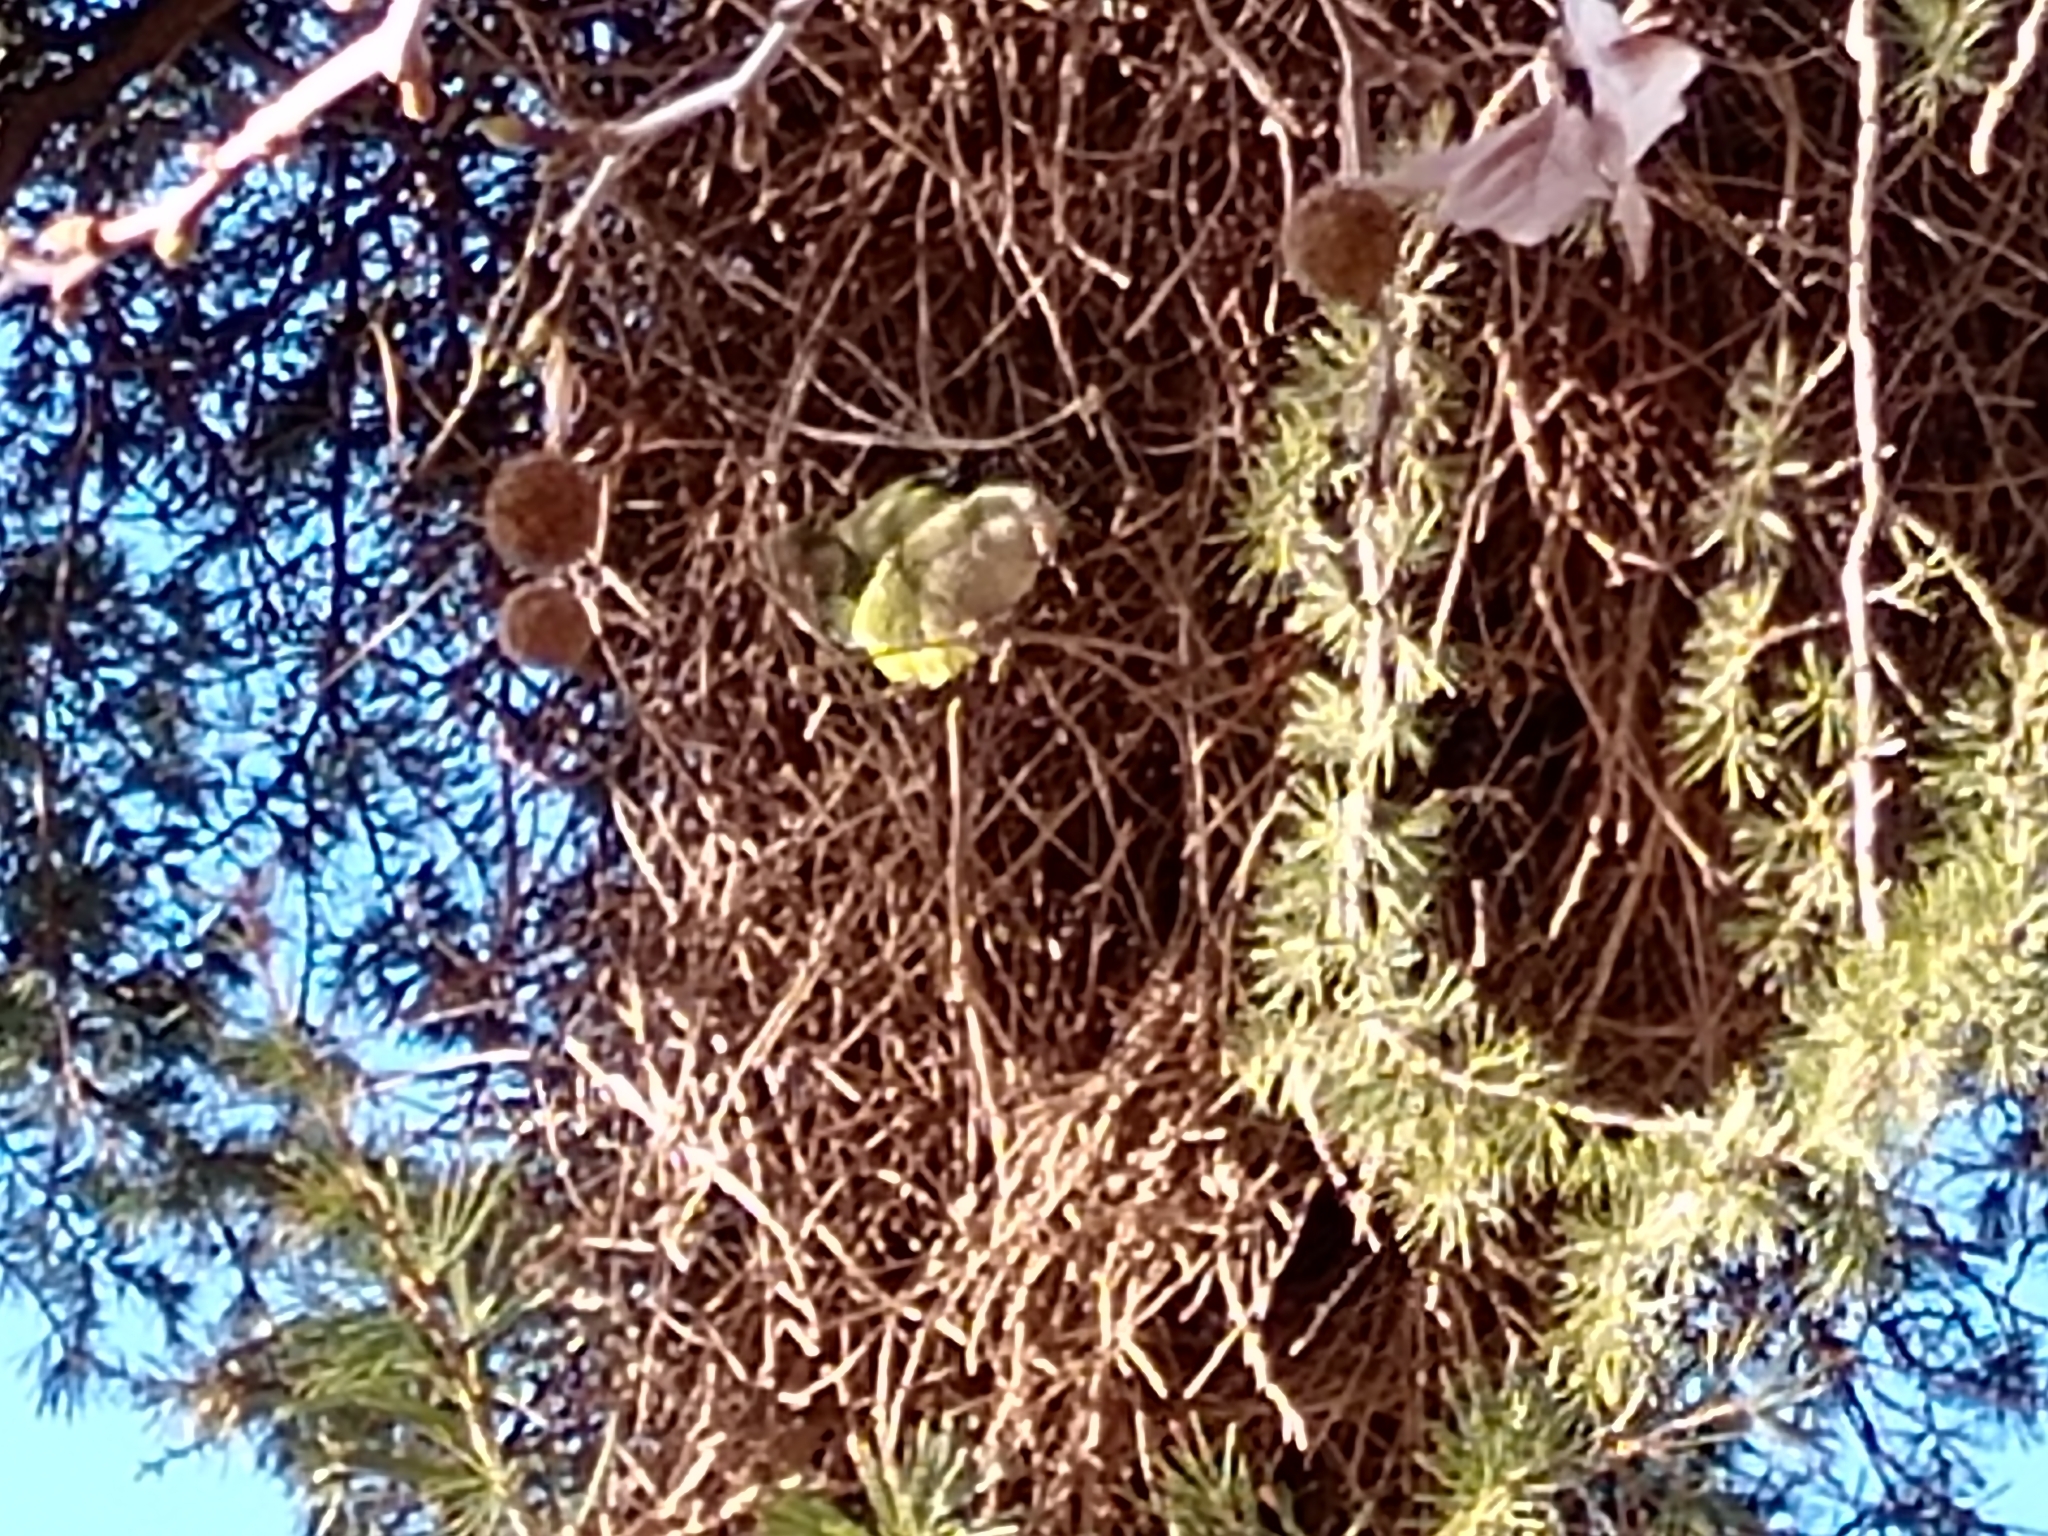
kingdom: Animalia
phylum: Chordata
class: Aves
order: Psittaciformes
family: Psittacidae
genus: Myiopsitta
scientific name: Myiopsitta monachus
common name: Monk parakeet
